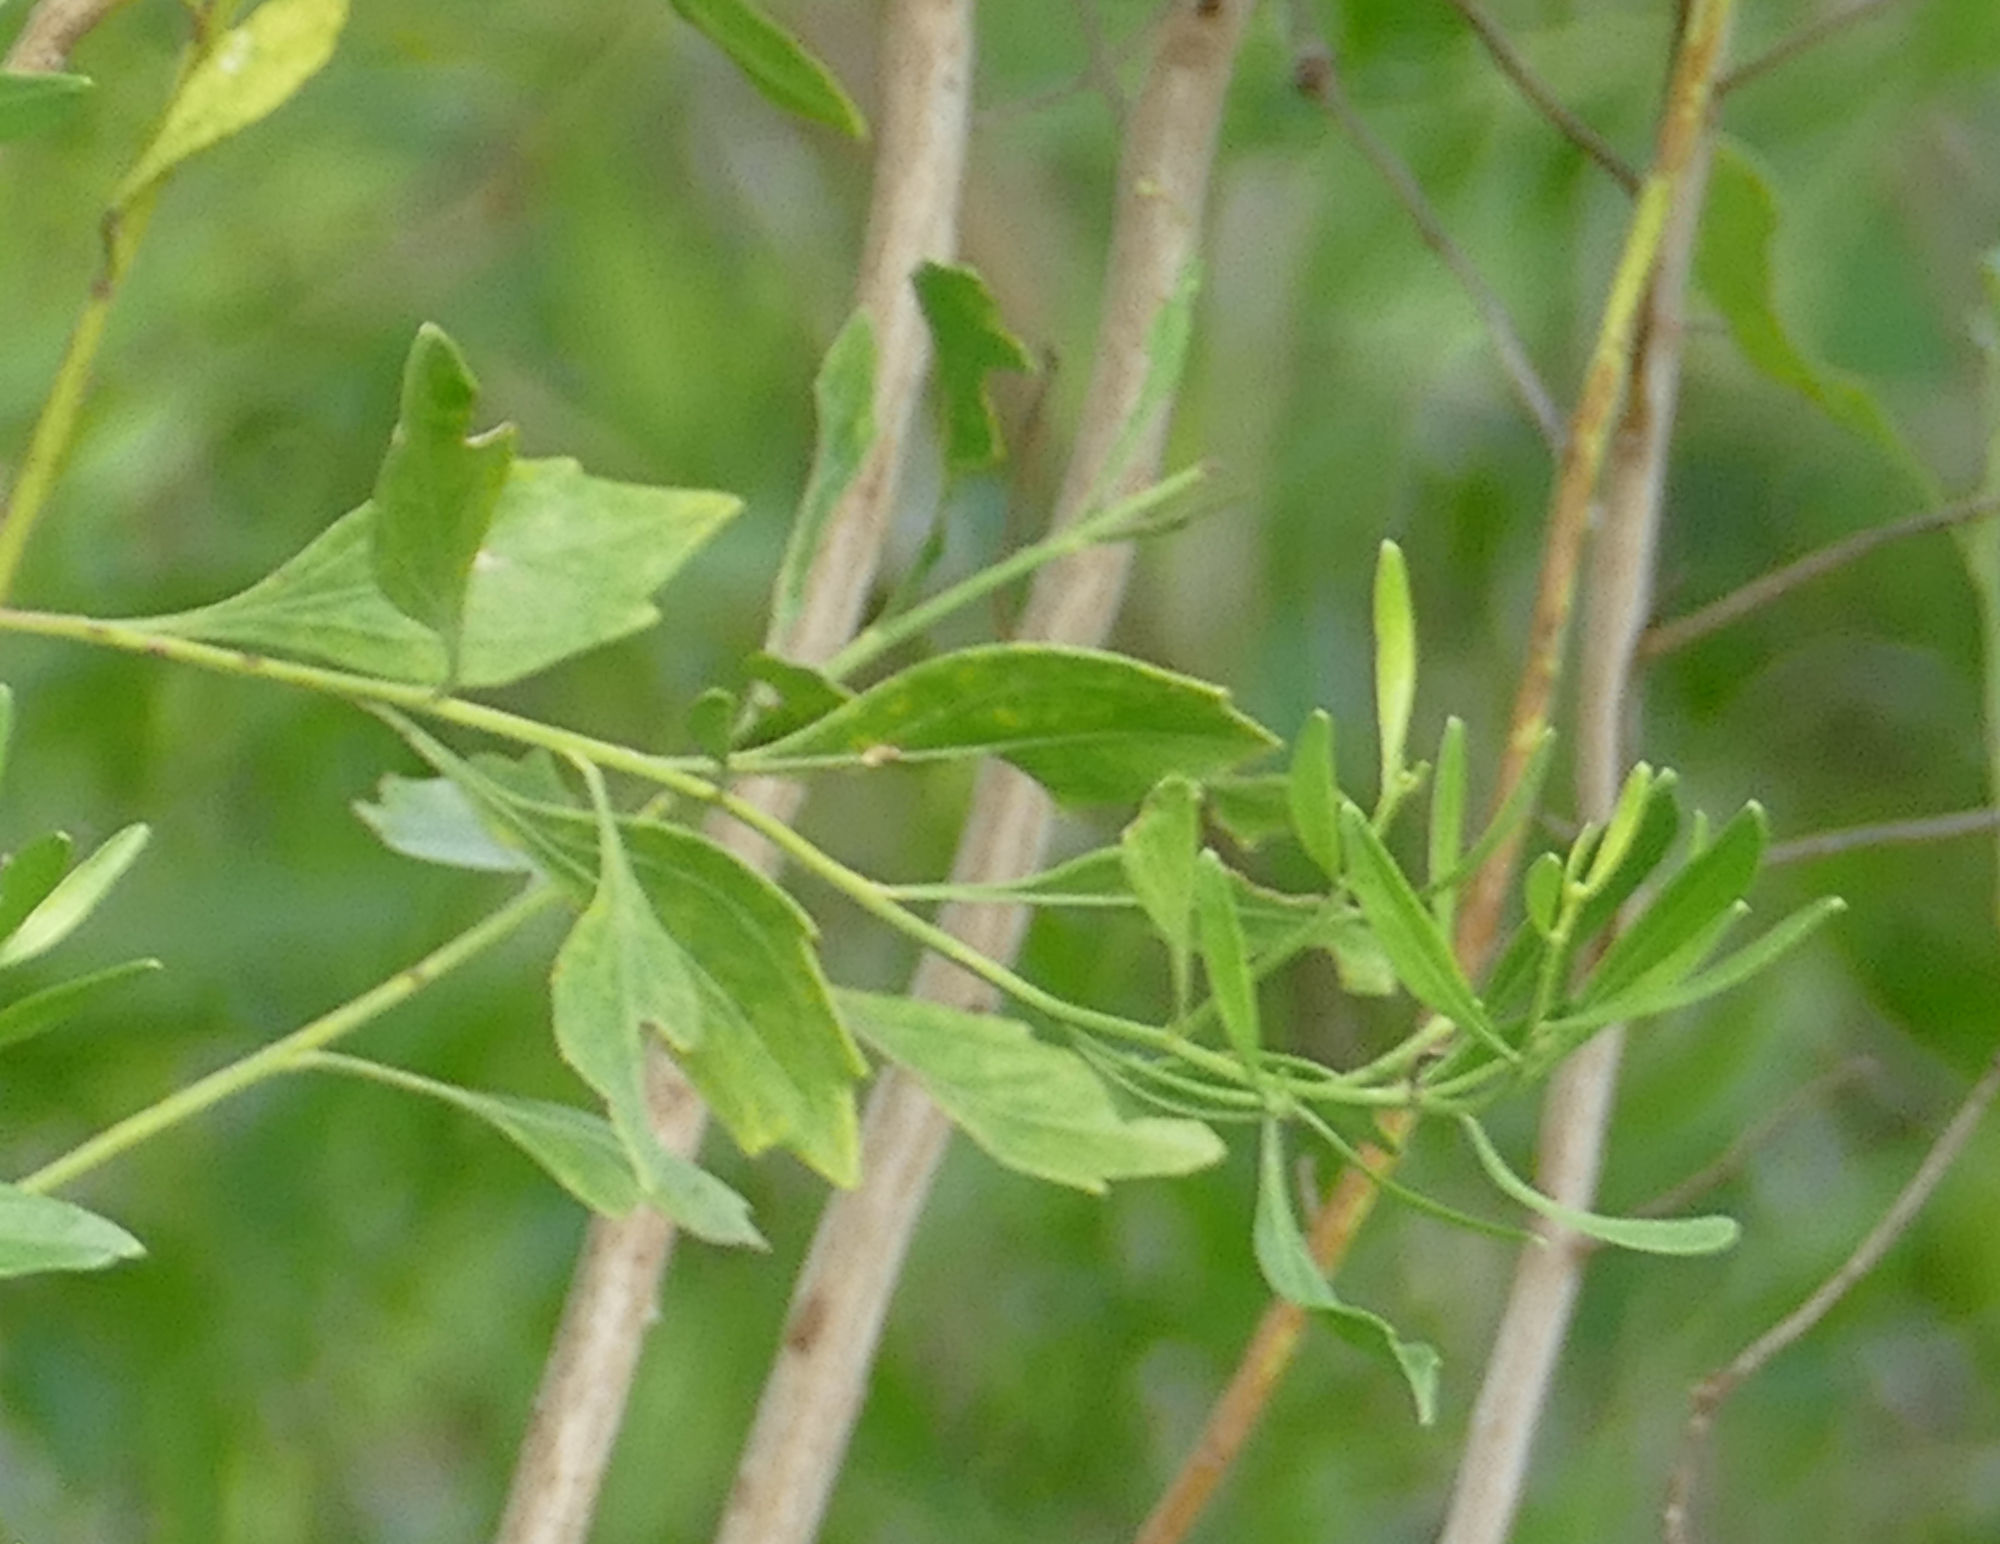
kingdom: Plantae
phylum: Tracheophyta
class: Magnoliopsida
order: Asterales
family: Asteraceae
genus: Baccharis
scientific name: Baccharis halimifolia
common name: Eastern baccharis
